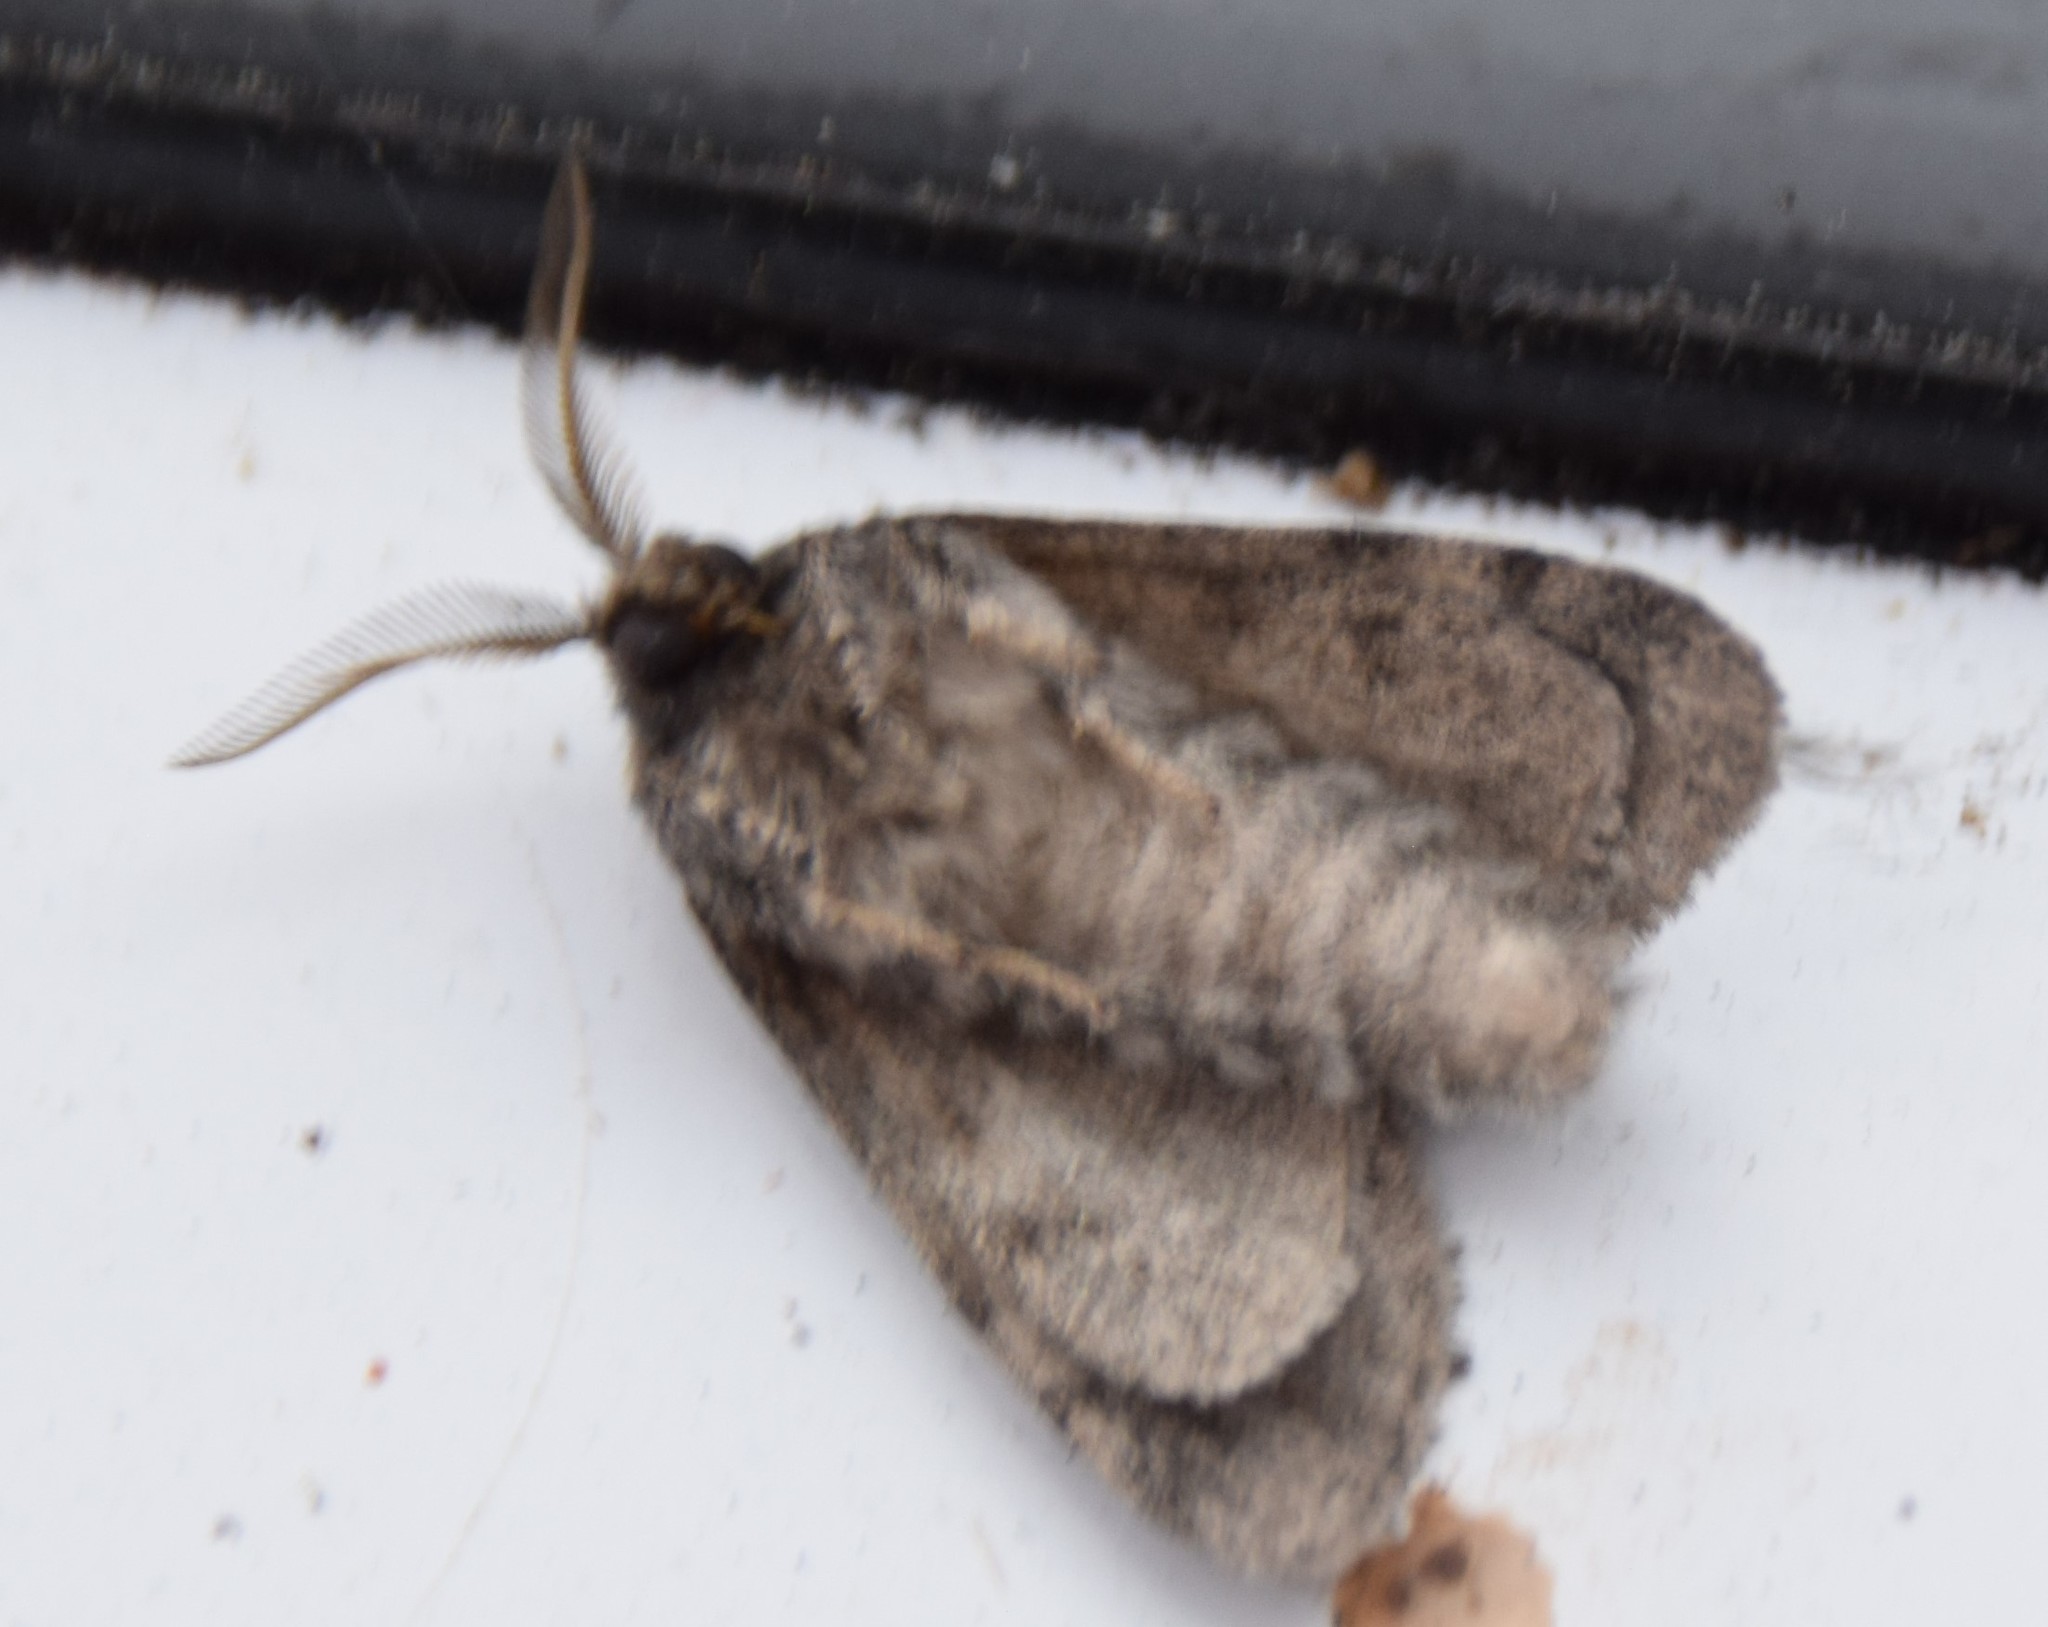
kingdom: Animalia
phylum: Arthropoda
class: Insecta
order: Lepidoptera
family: Notodontidae
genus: Gluphisia
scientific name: Gluphisia septentrionis
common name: Common gluphisia
